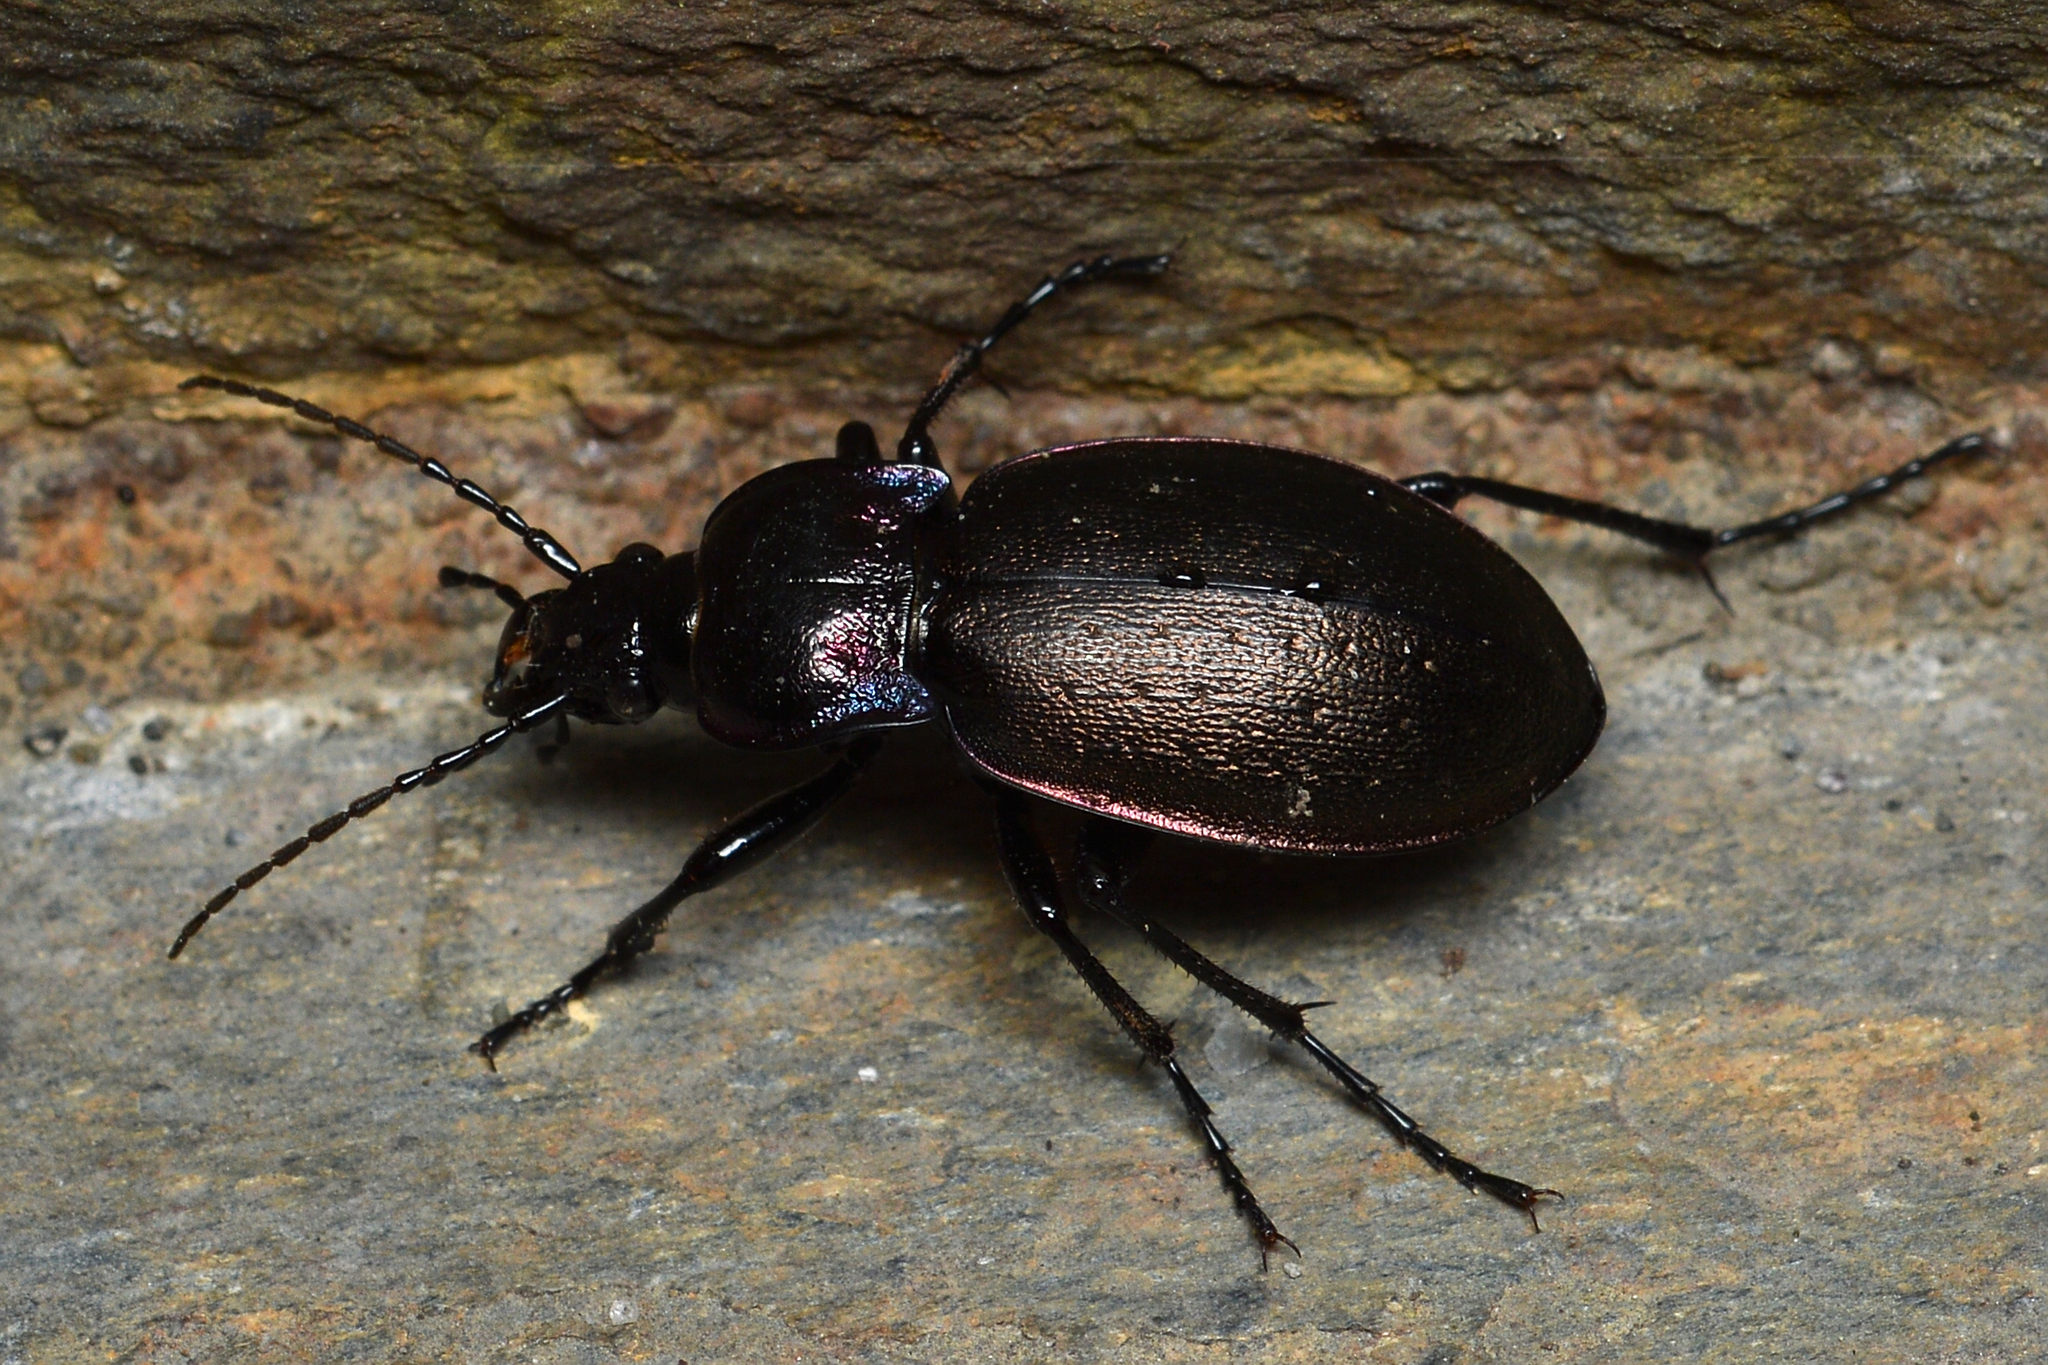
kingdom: Animalia
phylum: Arthropoda
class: Insecta
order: Coleoptera
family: Carabidae
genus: Carabus
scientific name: Carabus nemoralis
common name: European ground beetle
